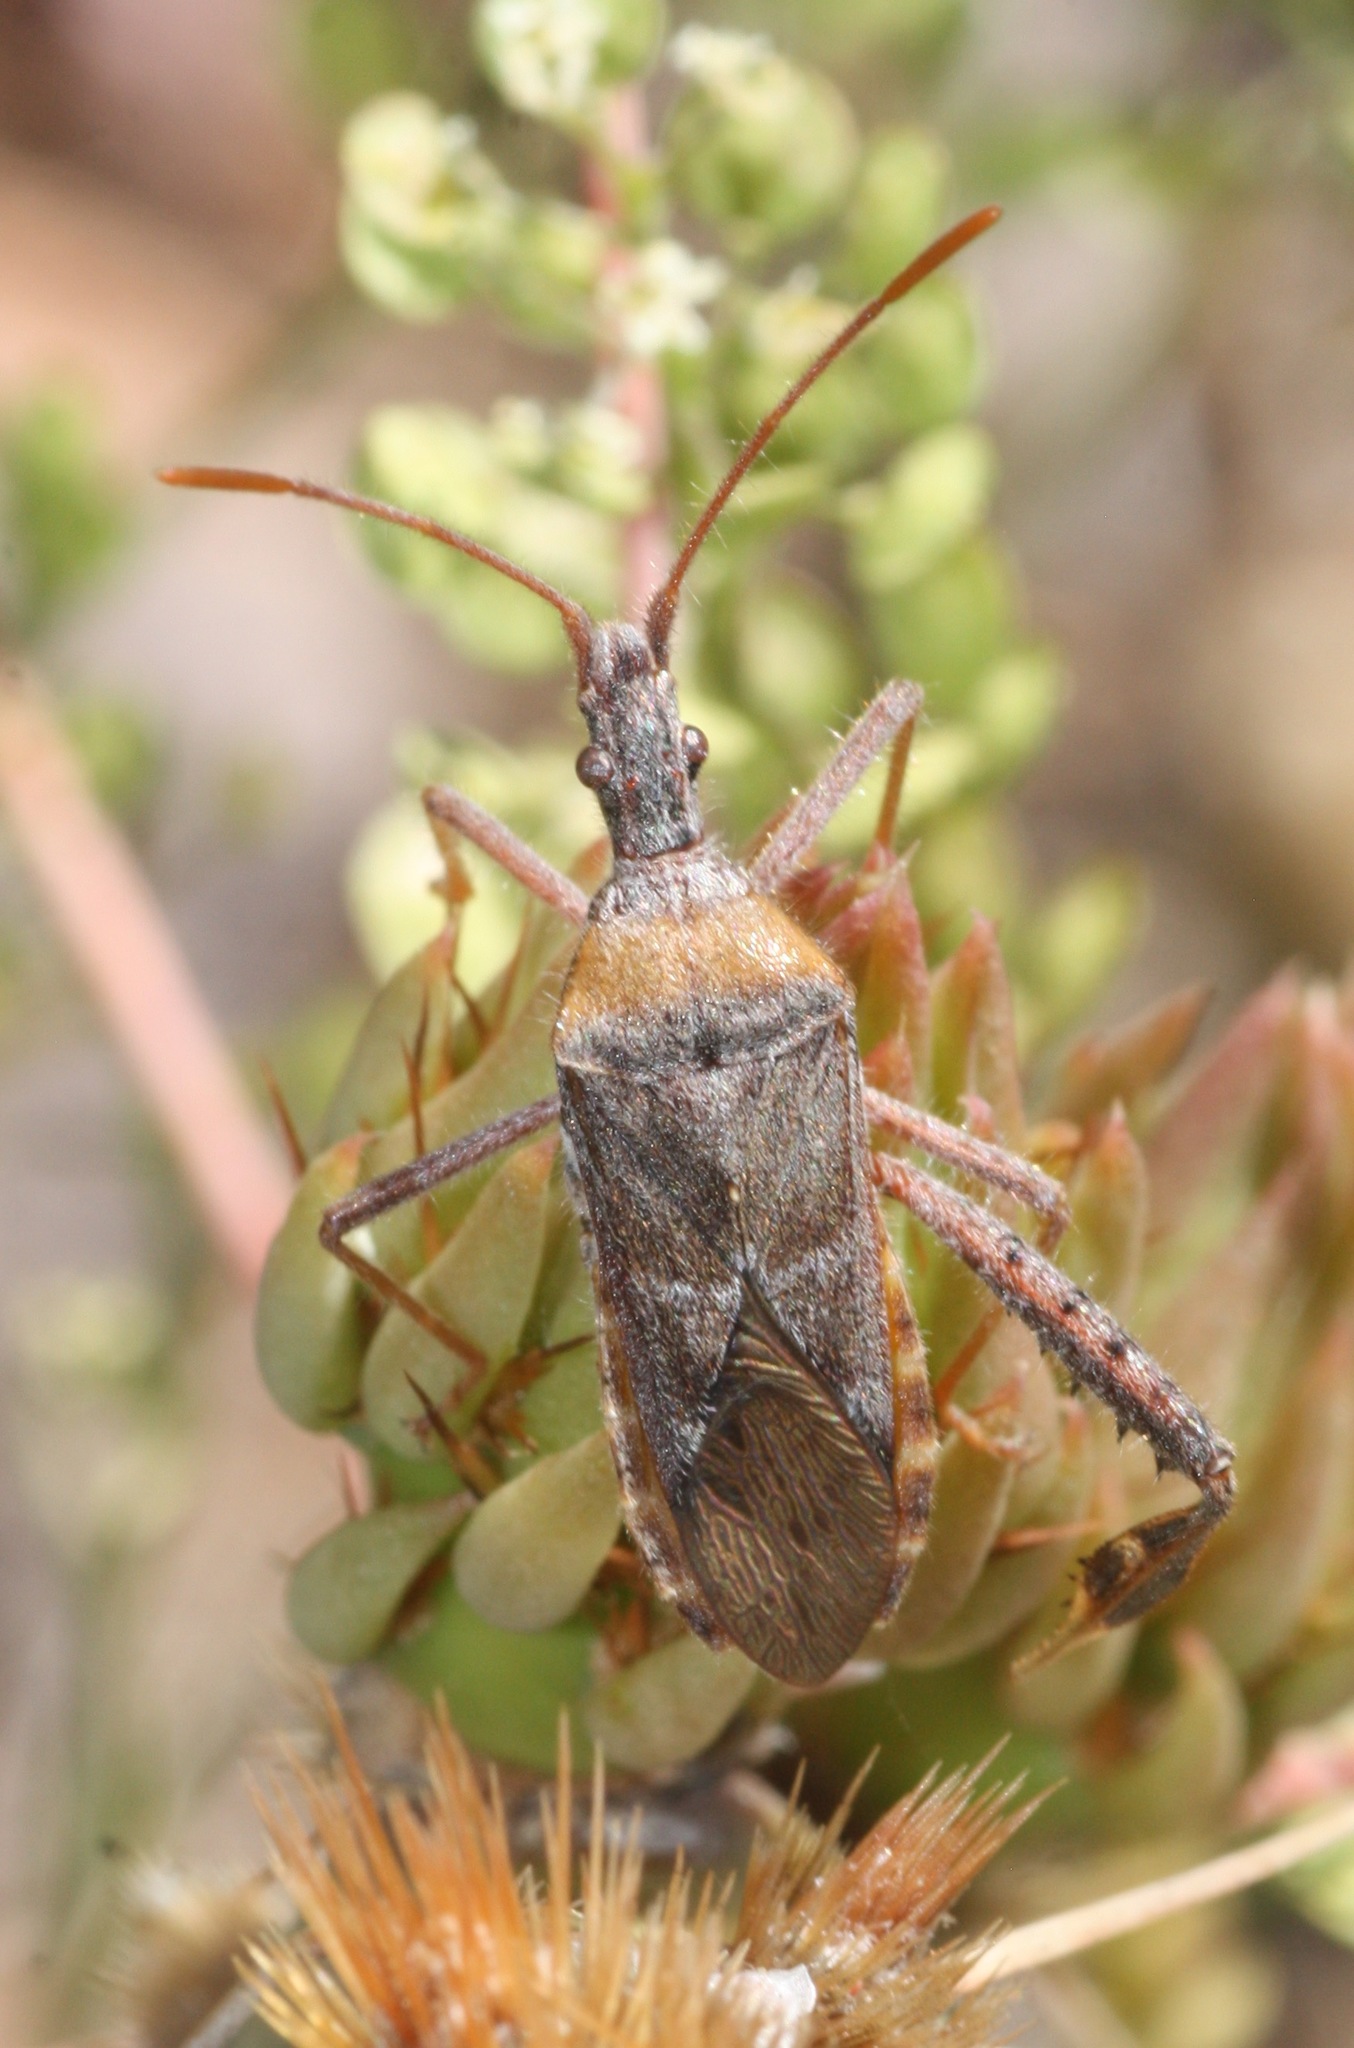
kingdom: Animalia
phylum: Arthropoda
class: Insecta
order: Hemiptera
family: Coreidae
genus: Narnia
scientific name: Narnia femorata
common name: Leaf-footed cactus bug
